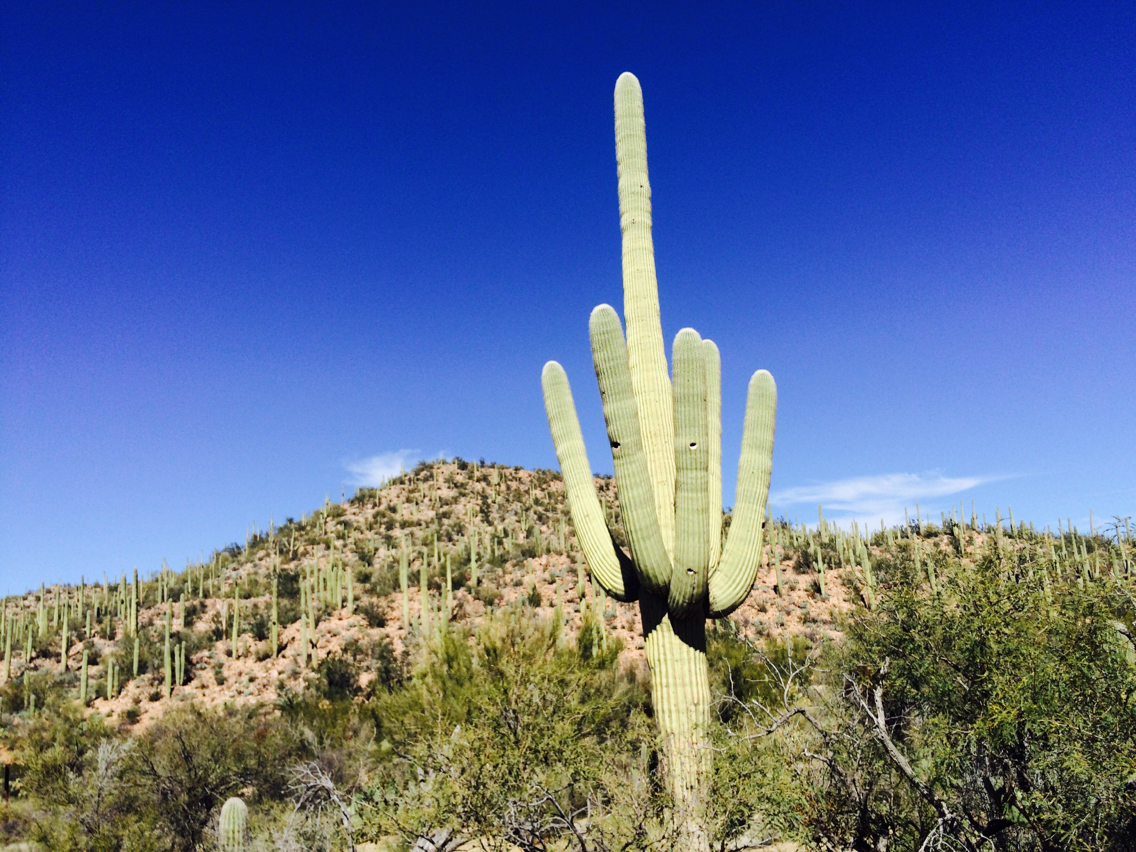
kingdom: Plantae
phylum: Tracheophyta
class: Magnoliopsida
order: Caryophyllales
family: Cactaceae
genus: Carnegiea
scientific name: Carnegiea gigantea
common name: Saguaro
